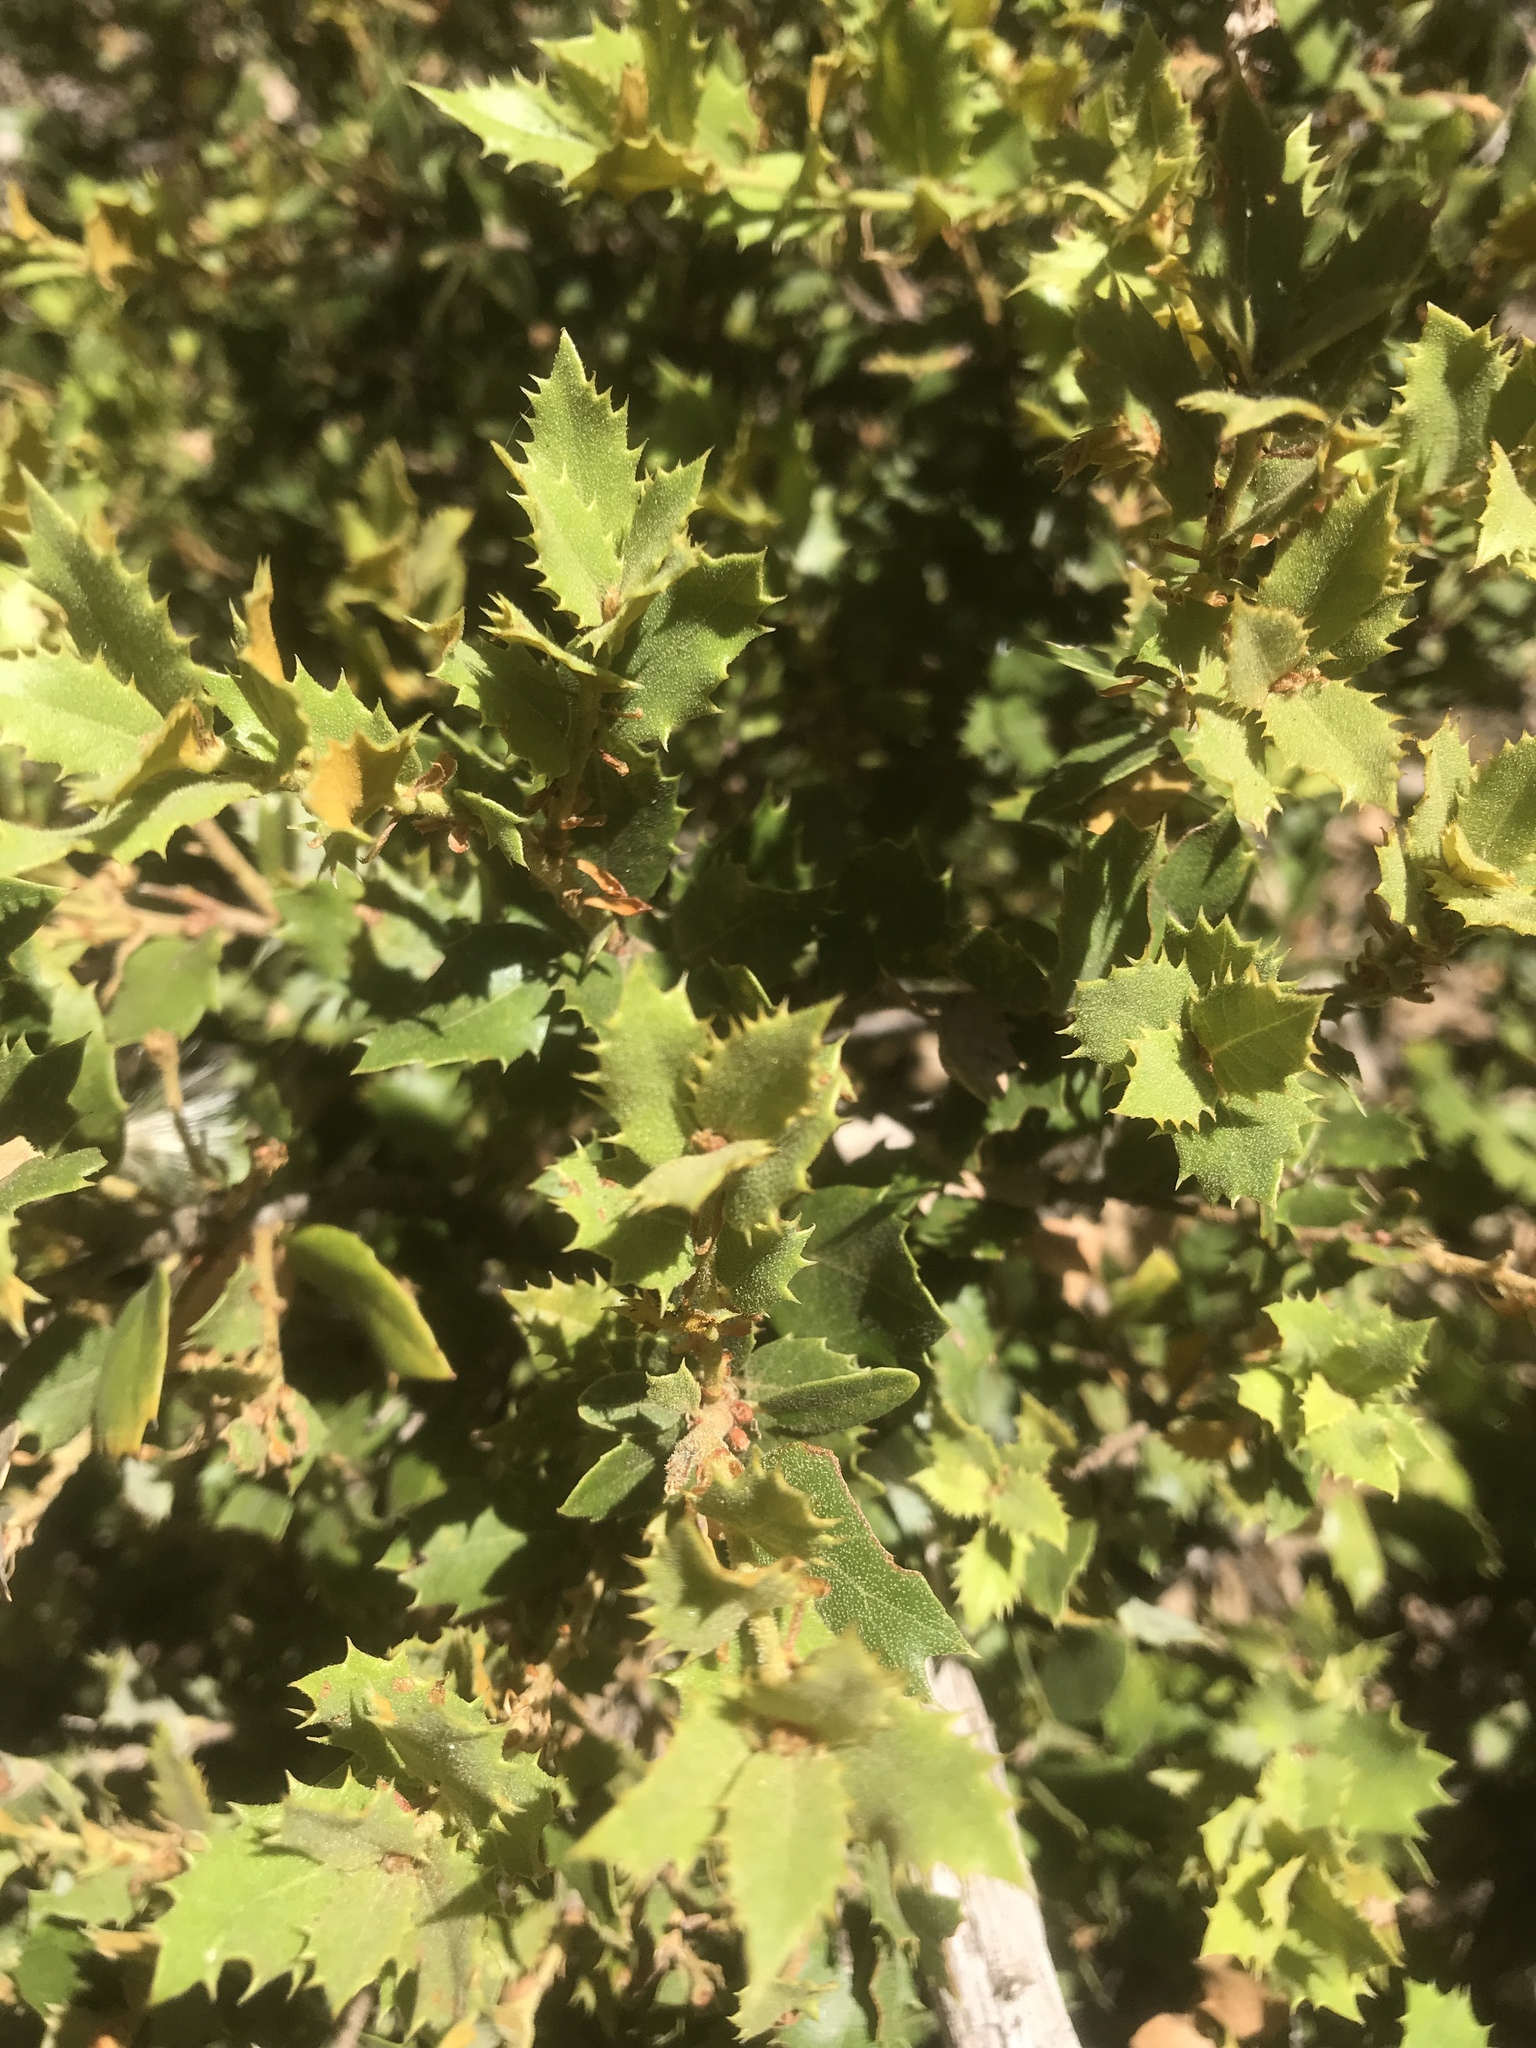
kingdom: Plantae
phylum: Tracheophyta
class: Magnoliopsida
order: Fagales
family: Fagaceae
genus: Quercus
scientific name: Quercus chrysolepis
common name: Canyon live oak
